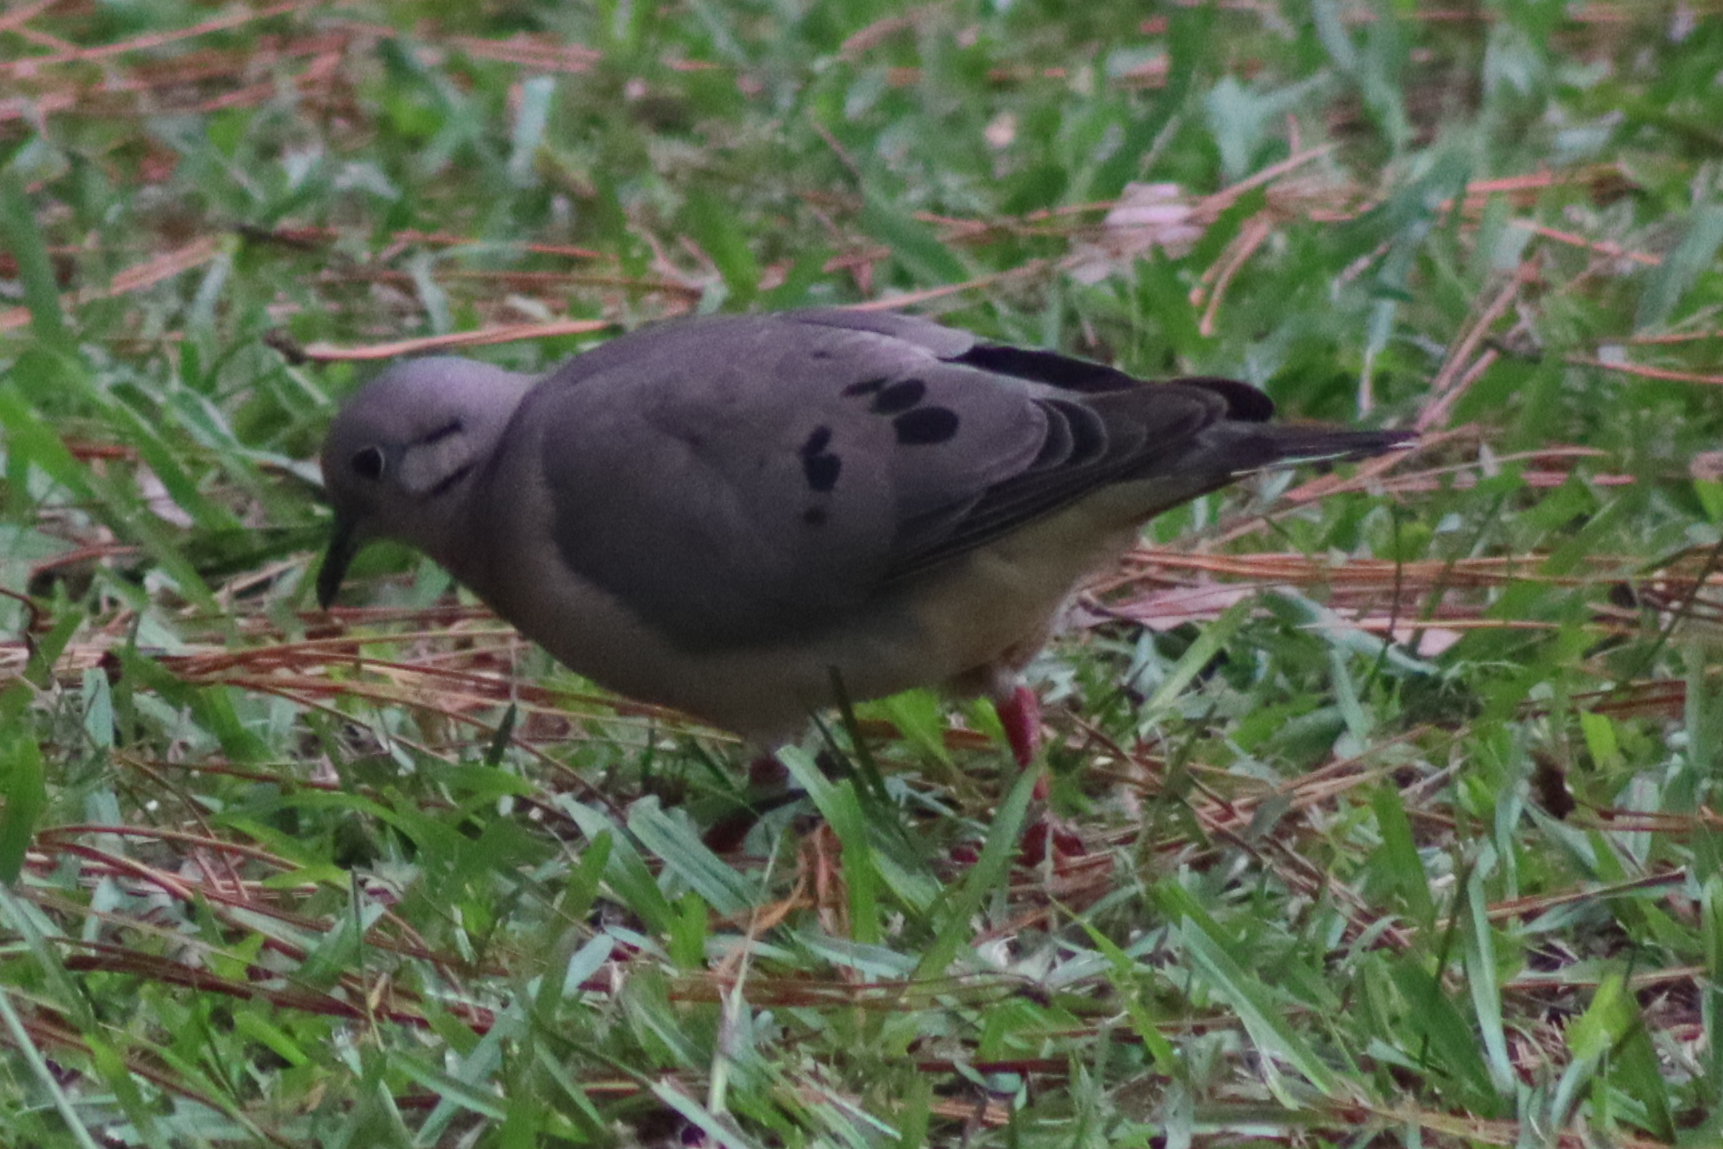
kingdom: Animalia
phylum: Chordata
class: Aves
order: Columbiformes
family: Columbidae
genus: Zenaida
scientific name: Zenaida auriculata
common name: Eared dove
